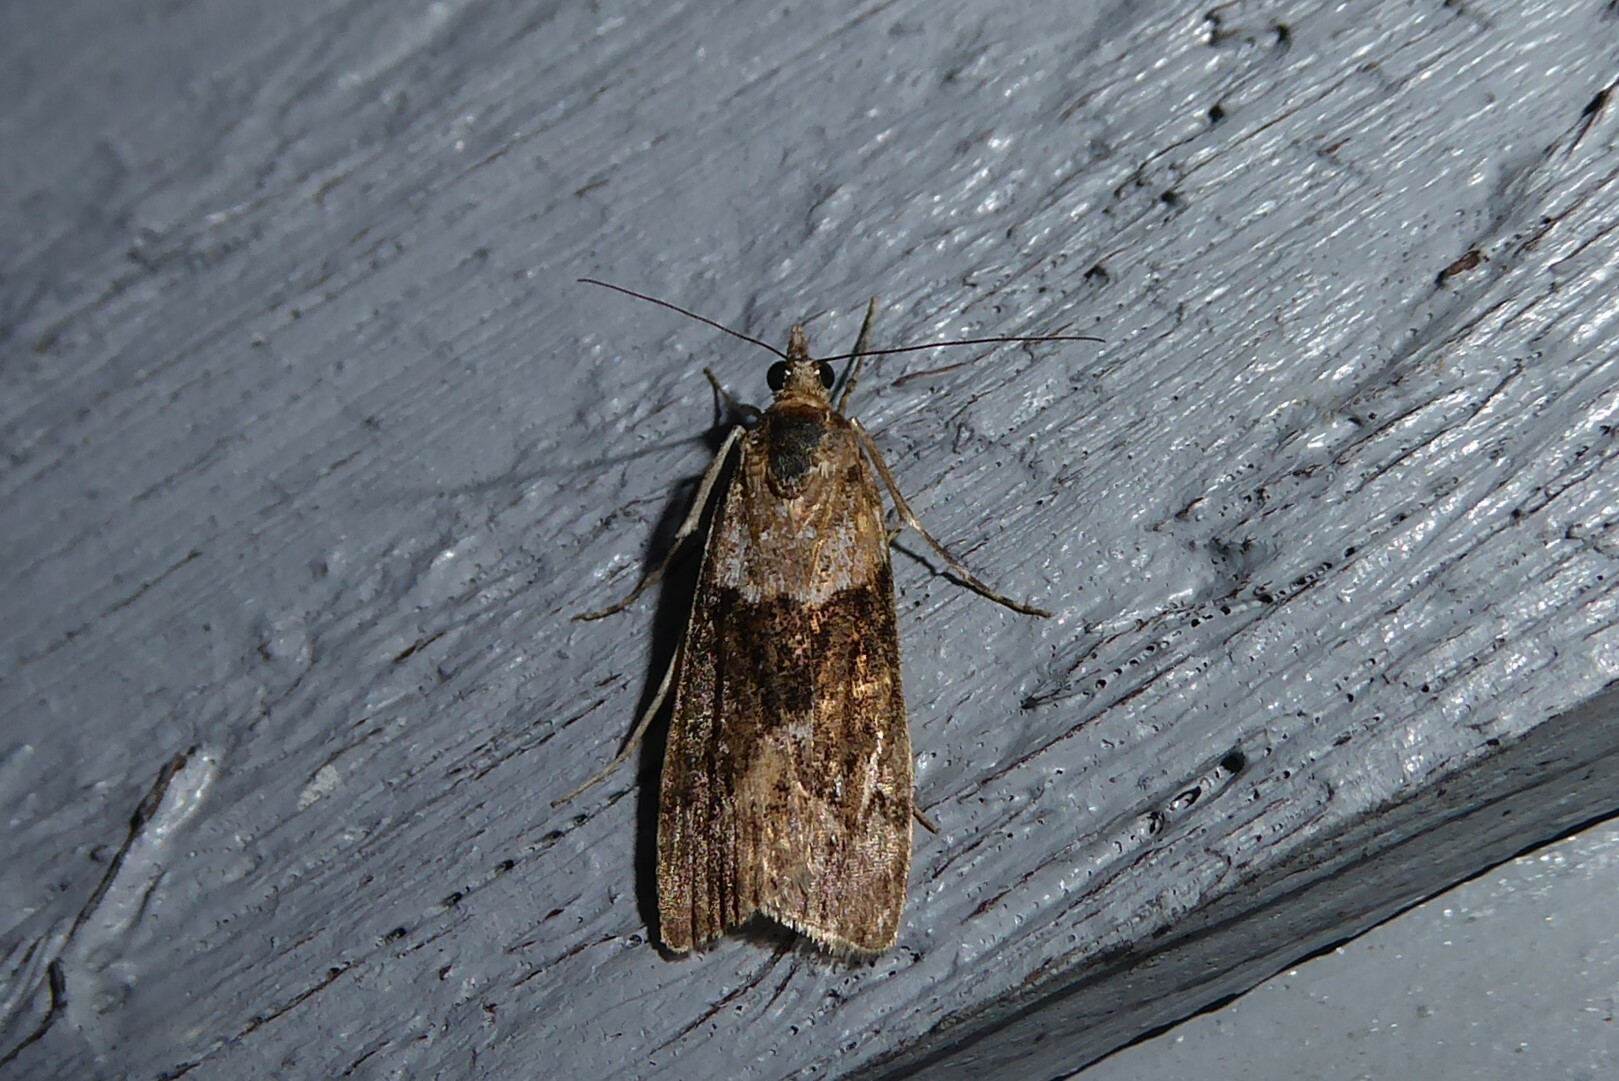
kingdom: Animalia
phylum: Arthropoda
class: Insecta
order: Lepidoptera
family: Crambidae
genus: Eudonia
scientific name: Eudonia submarginalis
